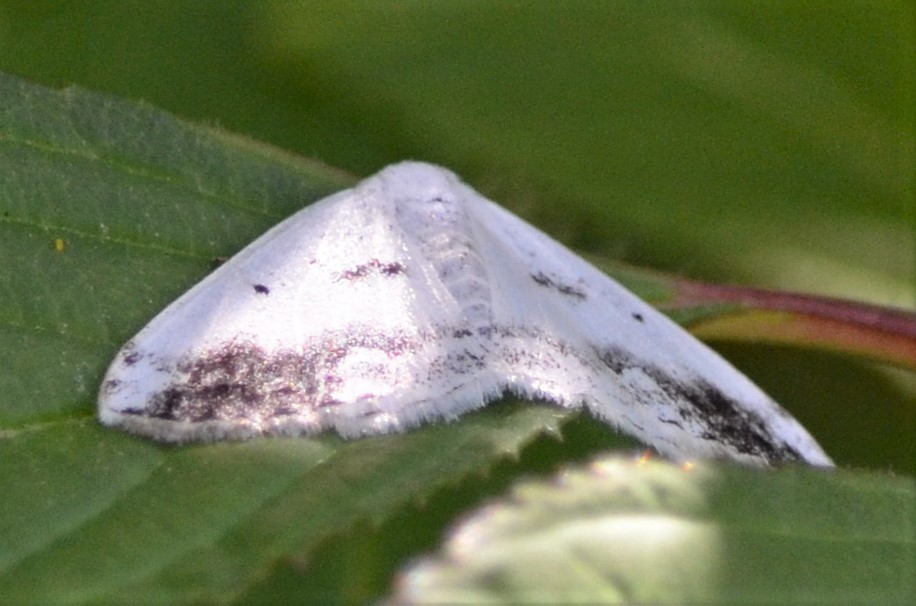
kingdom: Animalia
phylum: Arthropoda
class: Insecta
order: Lepidoptera
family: Geometridae
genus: Lomographa
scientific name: Lomographa temerata
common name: Clouded silver
